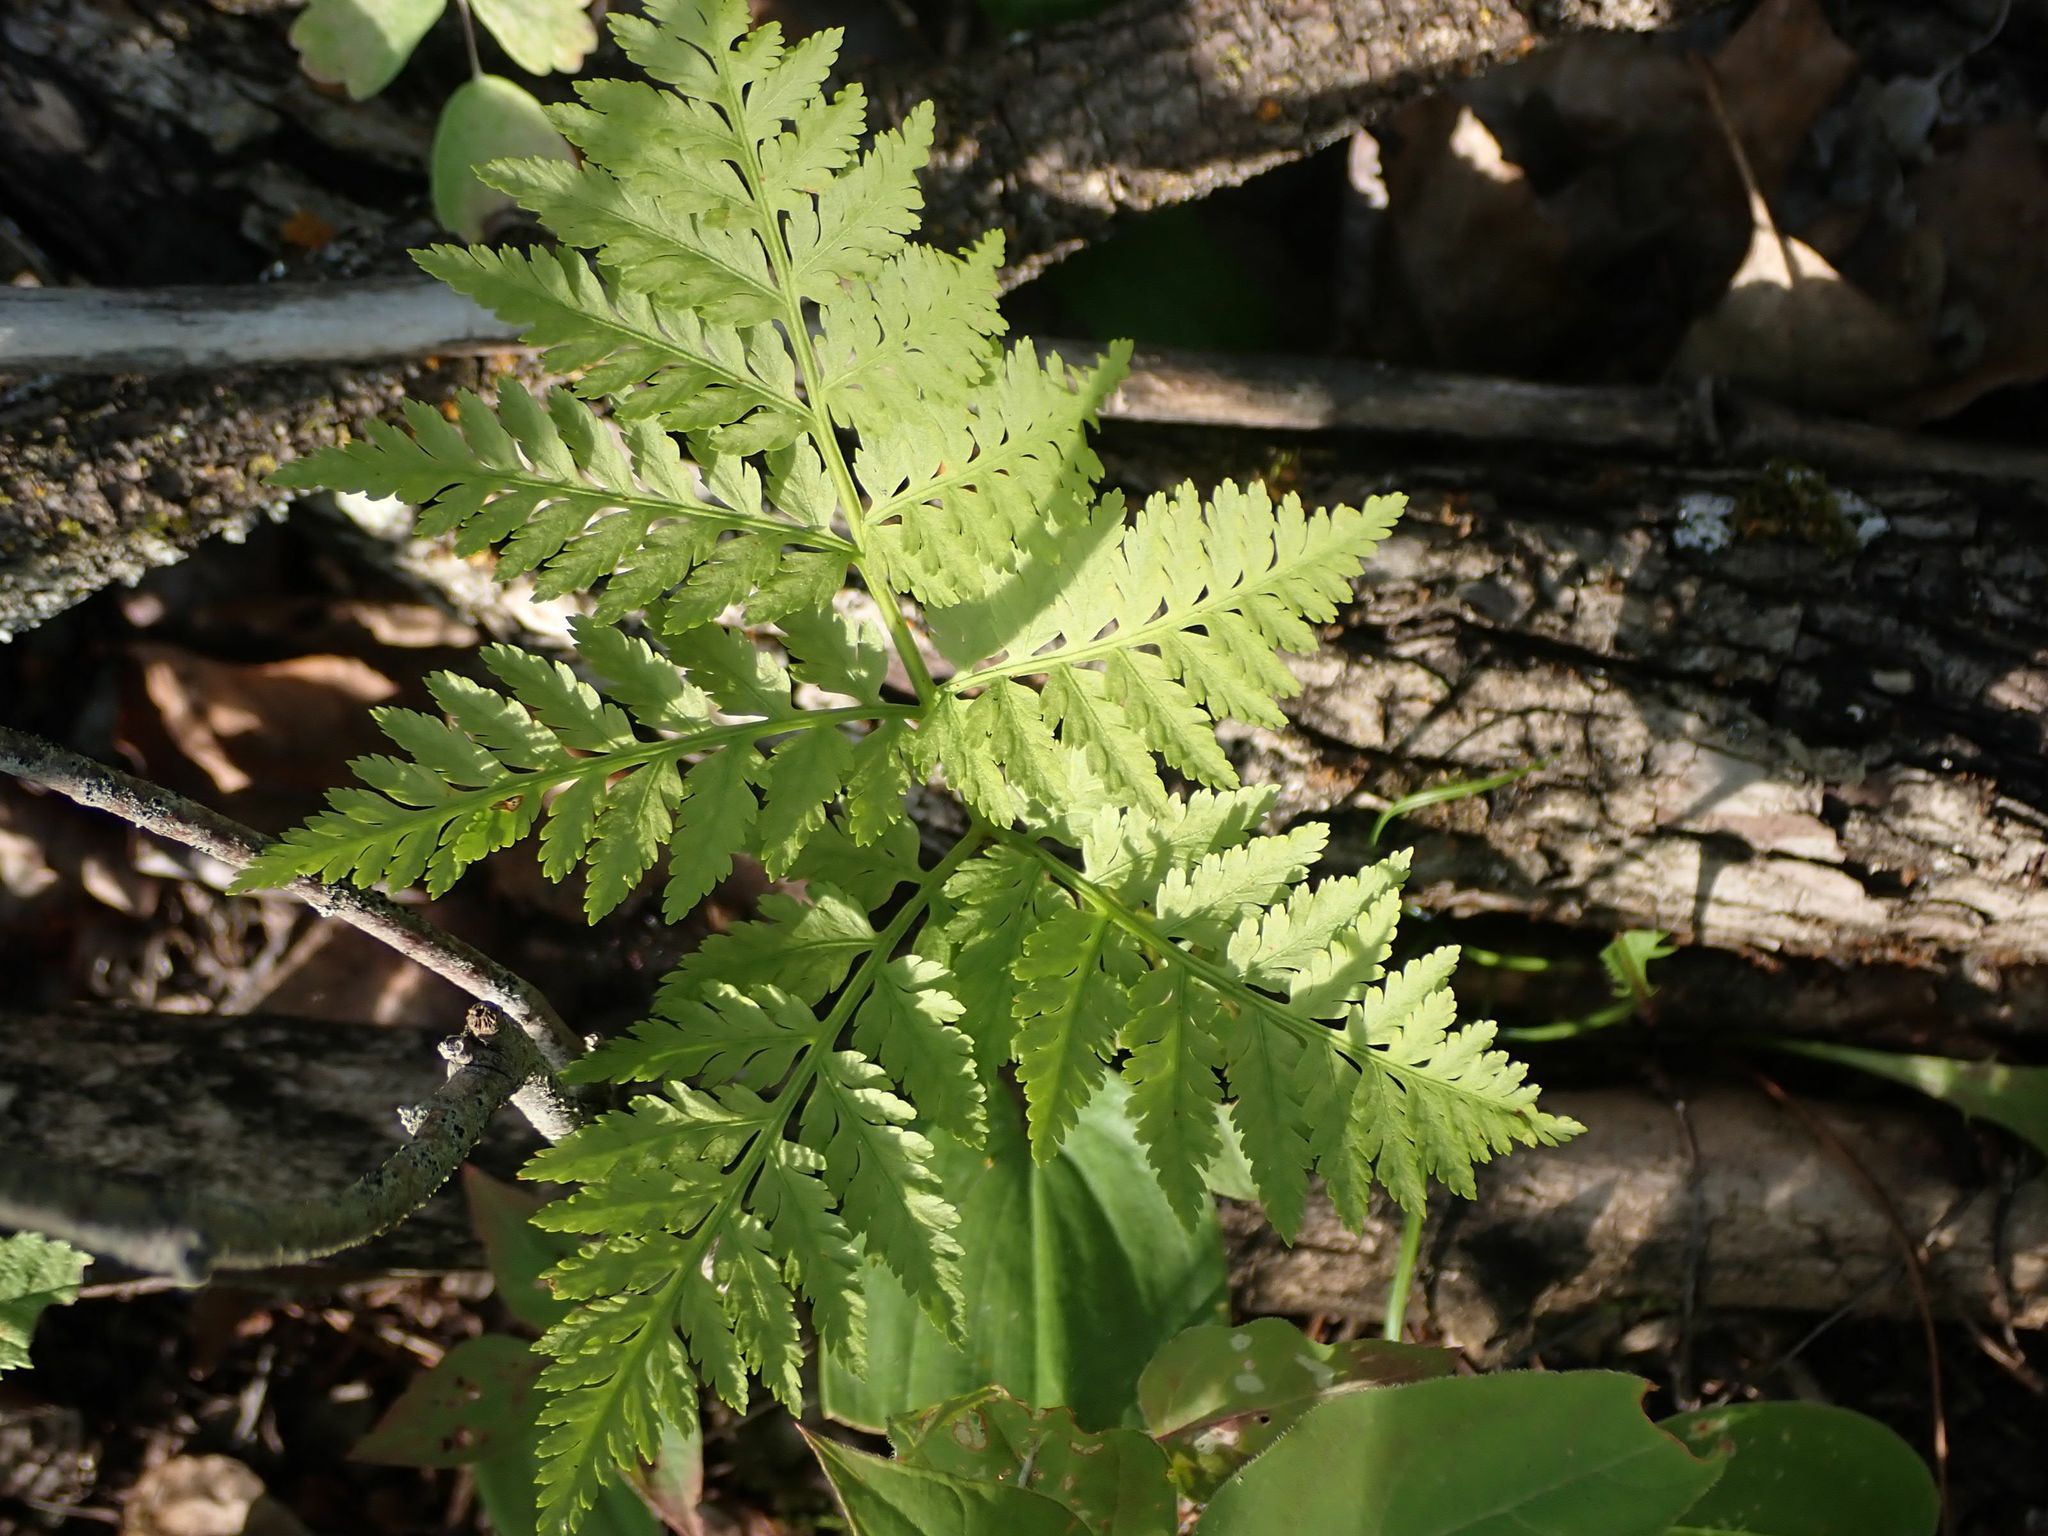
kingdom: Plantae
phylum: Tracheophyta
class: Polypodiopsida
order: Ophioglossales
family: Ophioglossaceae
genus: Botrypus
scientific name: Botrypus virginianus
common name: Common grapefern
